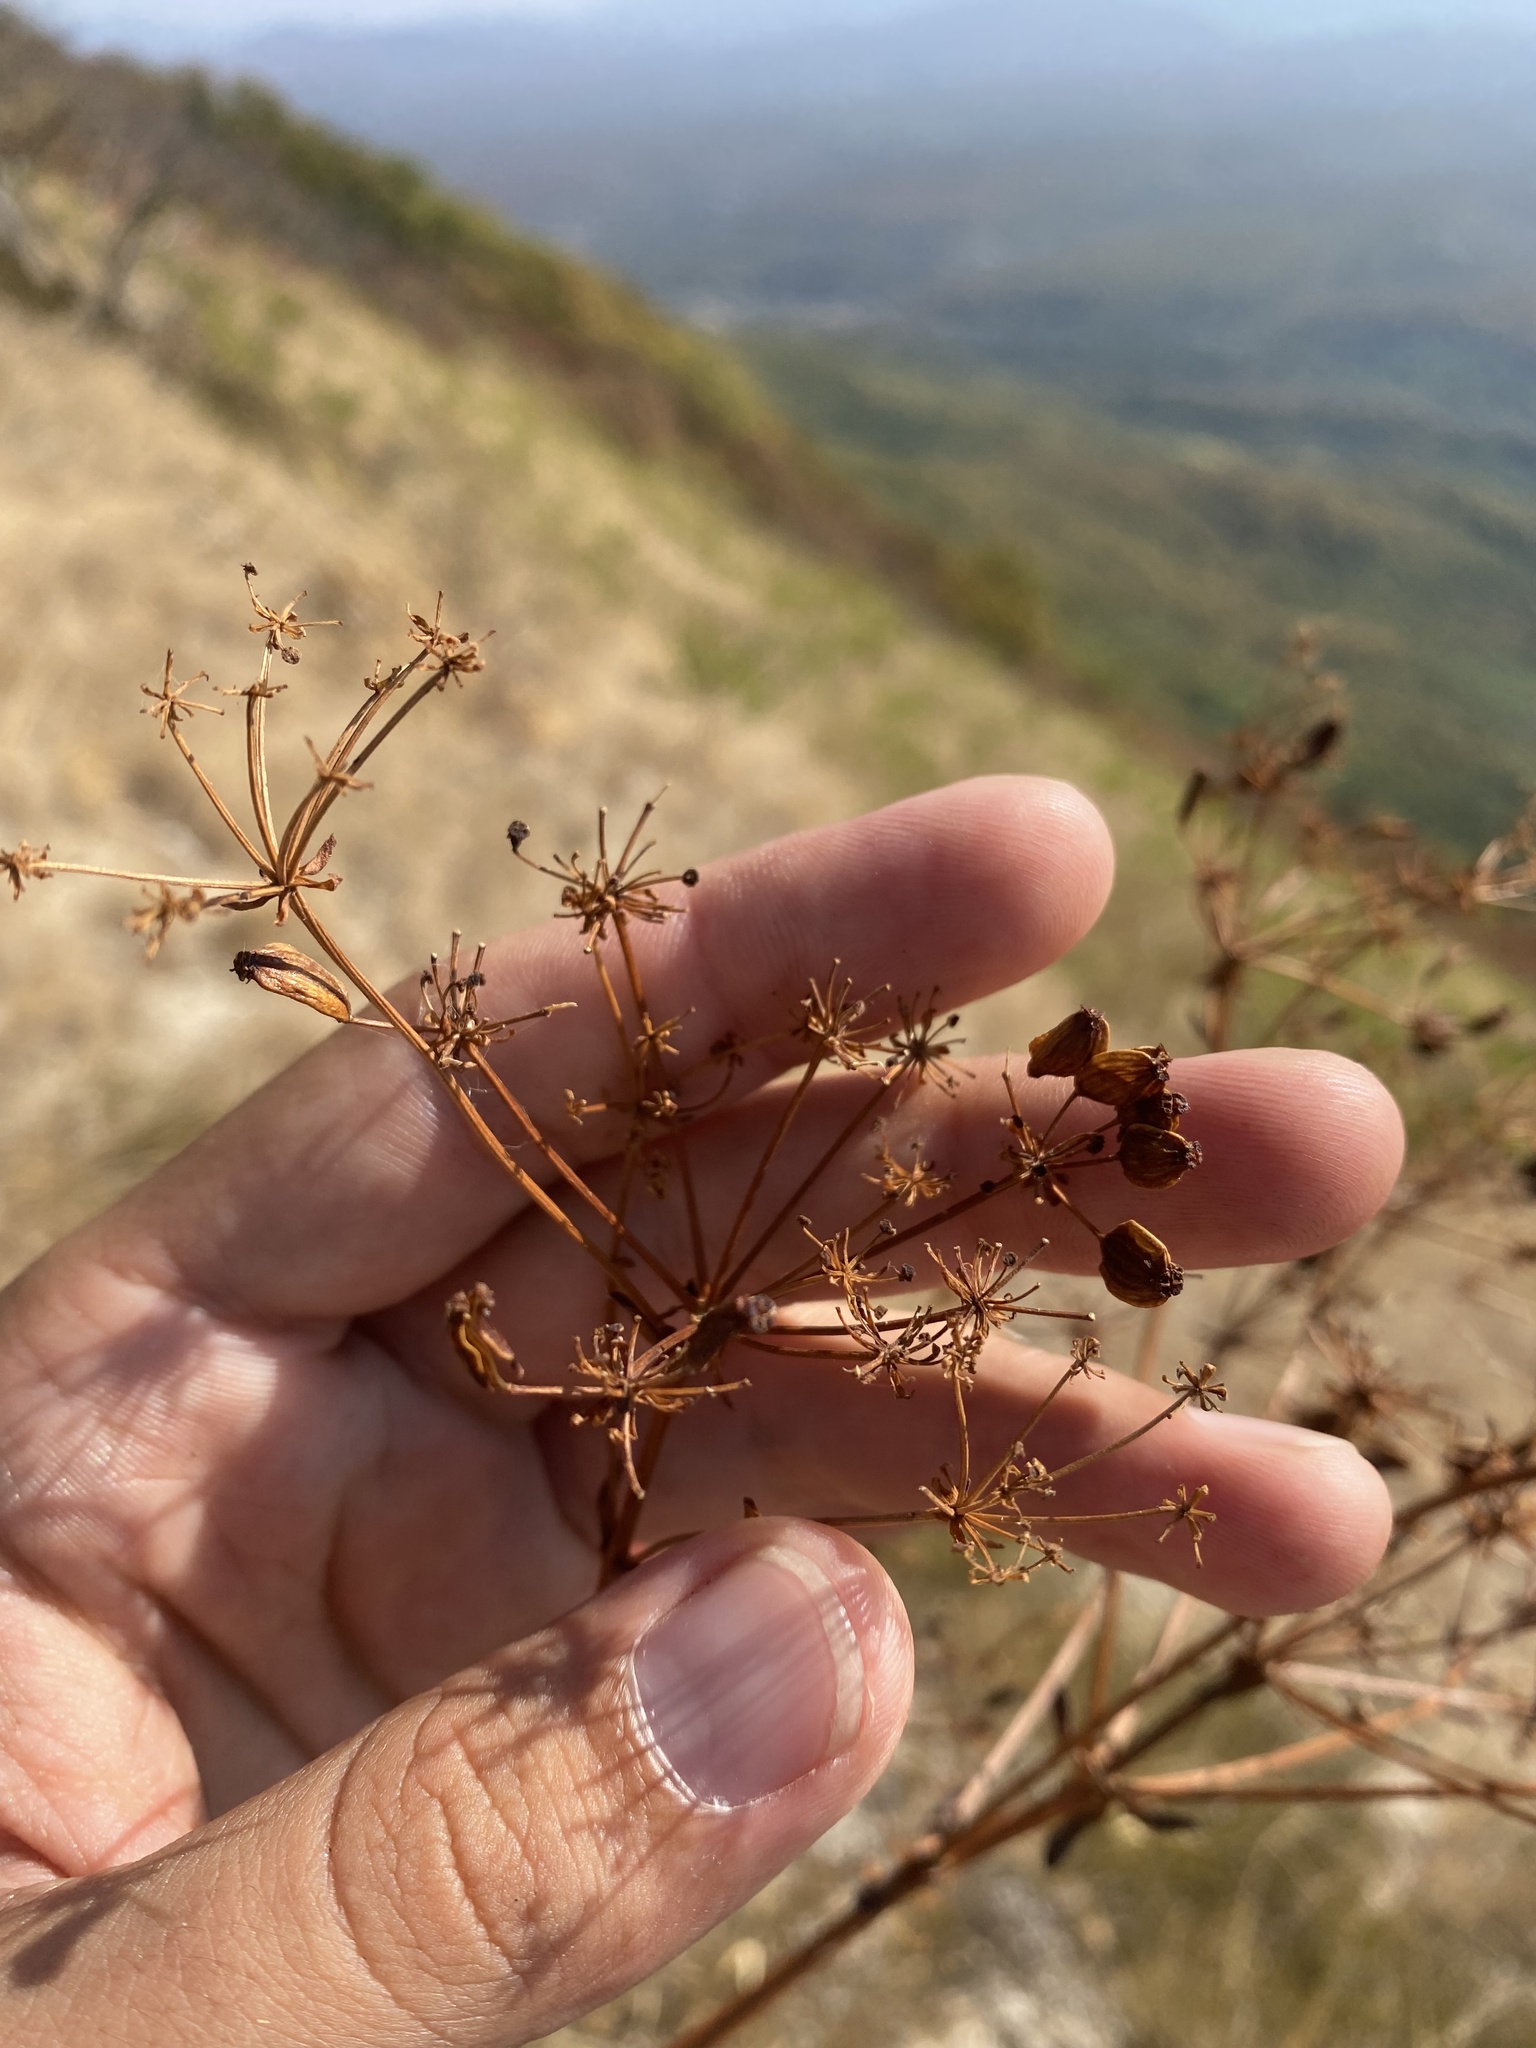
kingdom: Plantae
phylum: Tracheophyta
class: Magnoliopsida
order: Apiales
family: Apiaceae
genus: Ferulago
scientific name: Ferulago galbanifera
